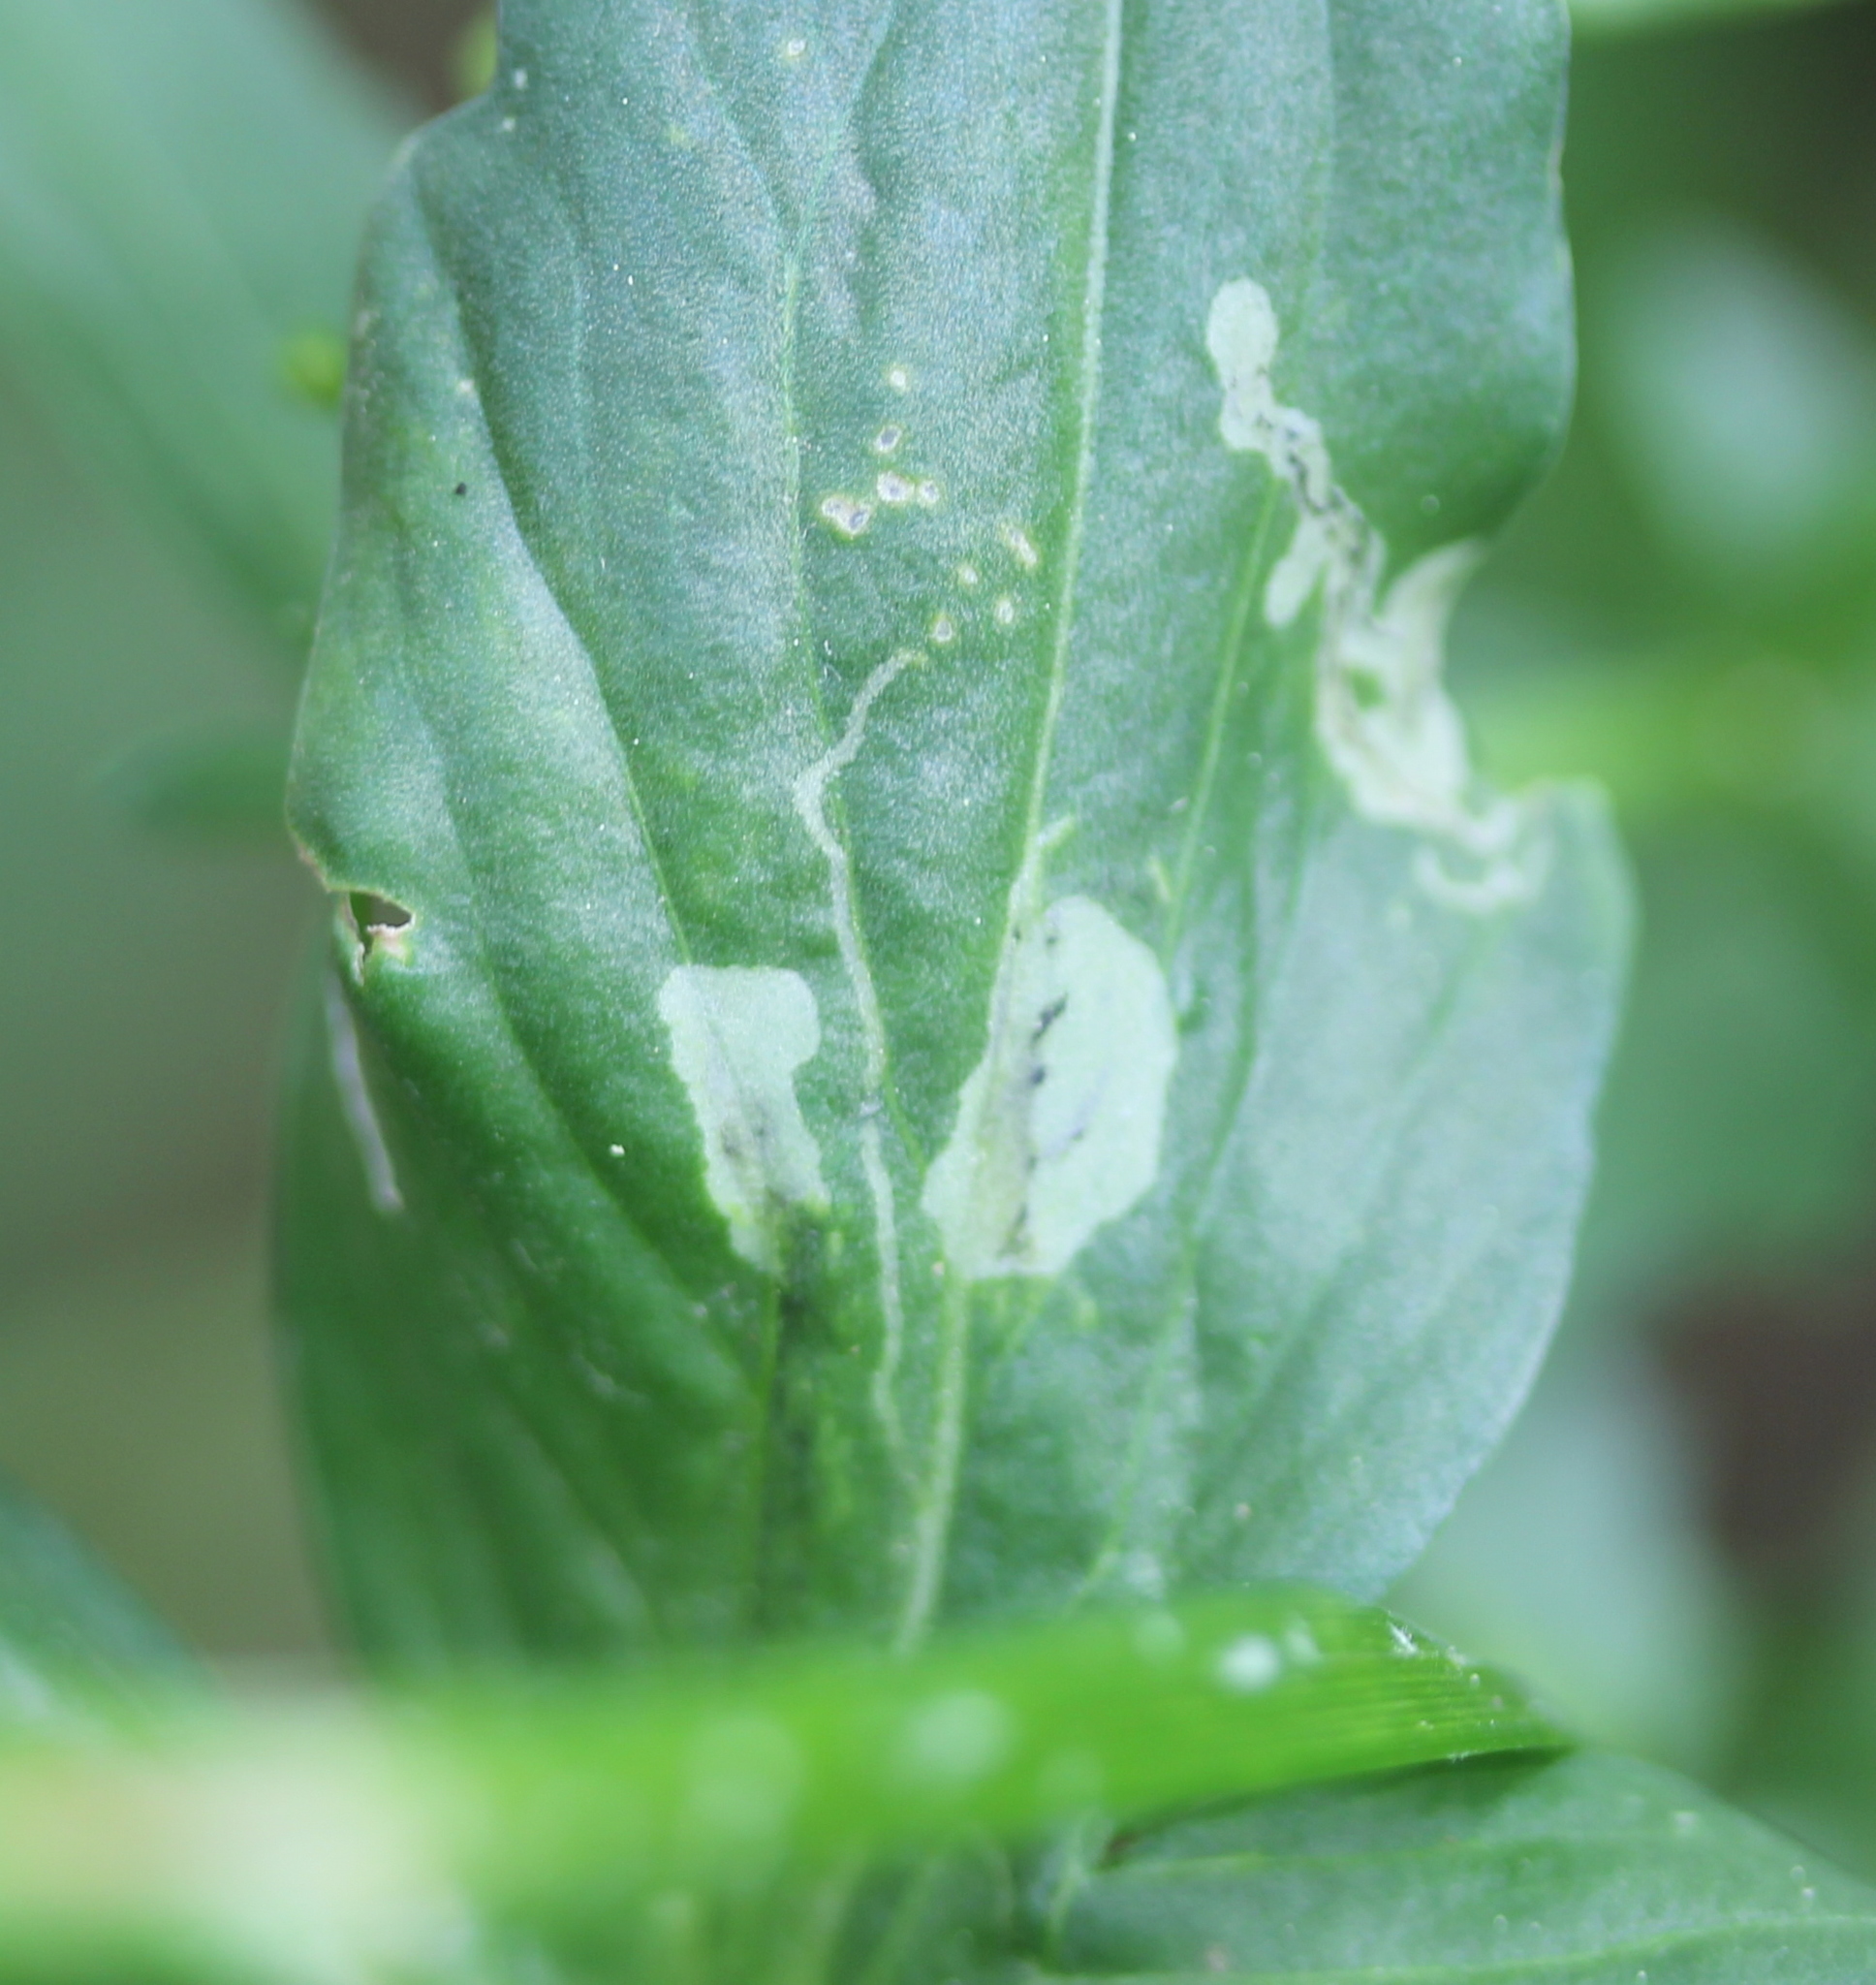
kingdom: Animalia
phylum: Arthropoda
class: Insecta
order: Diptera
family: Agromyzidae
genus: Liriomyza
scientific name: Liriomyza brassicae
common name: Serpentine leaf miner
